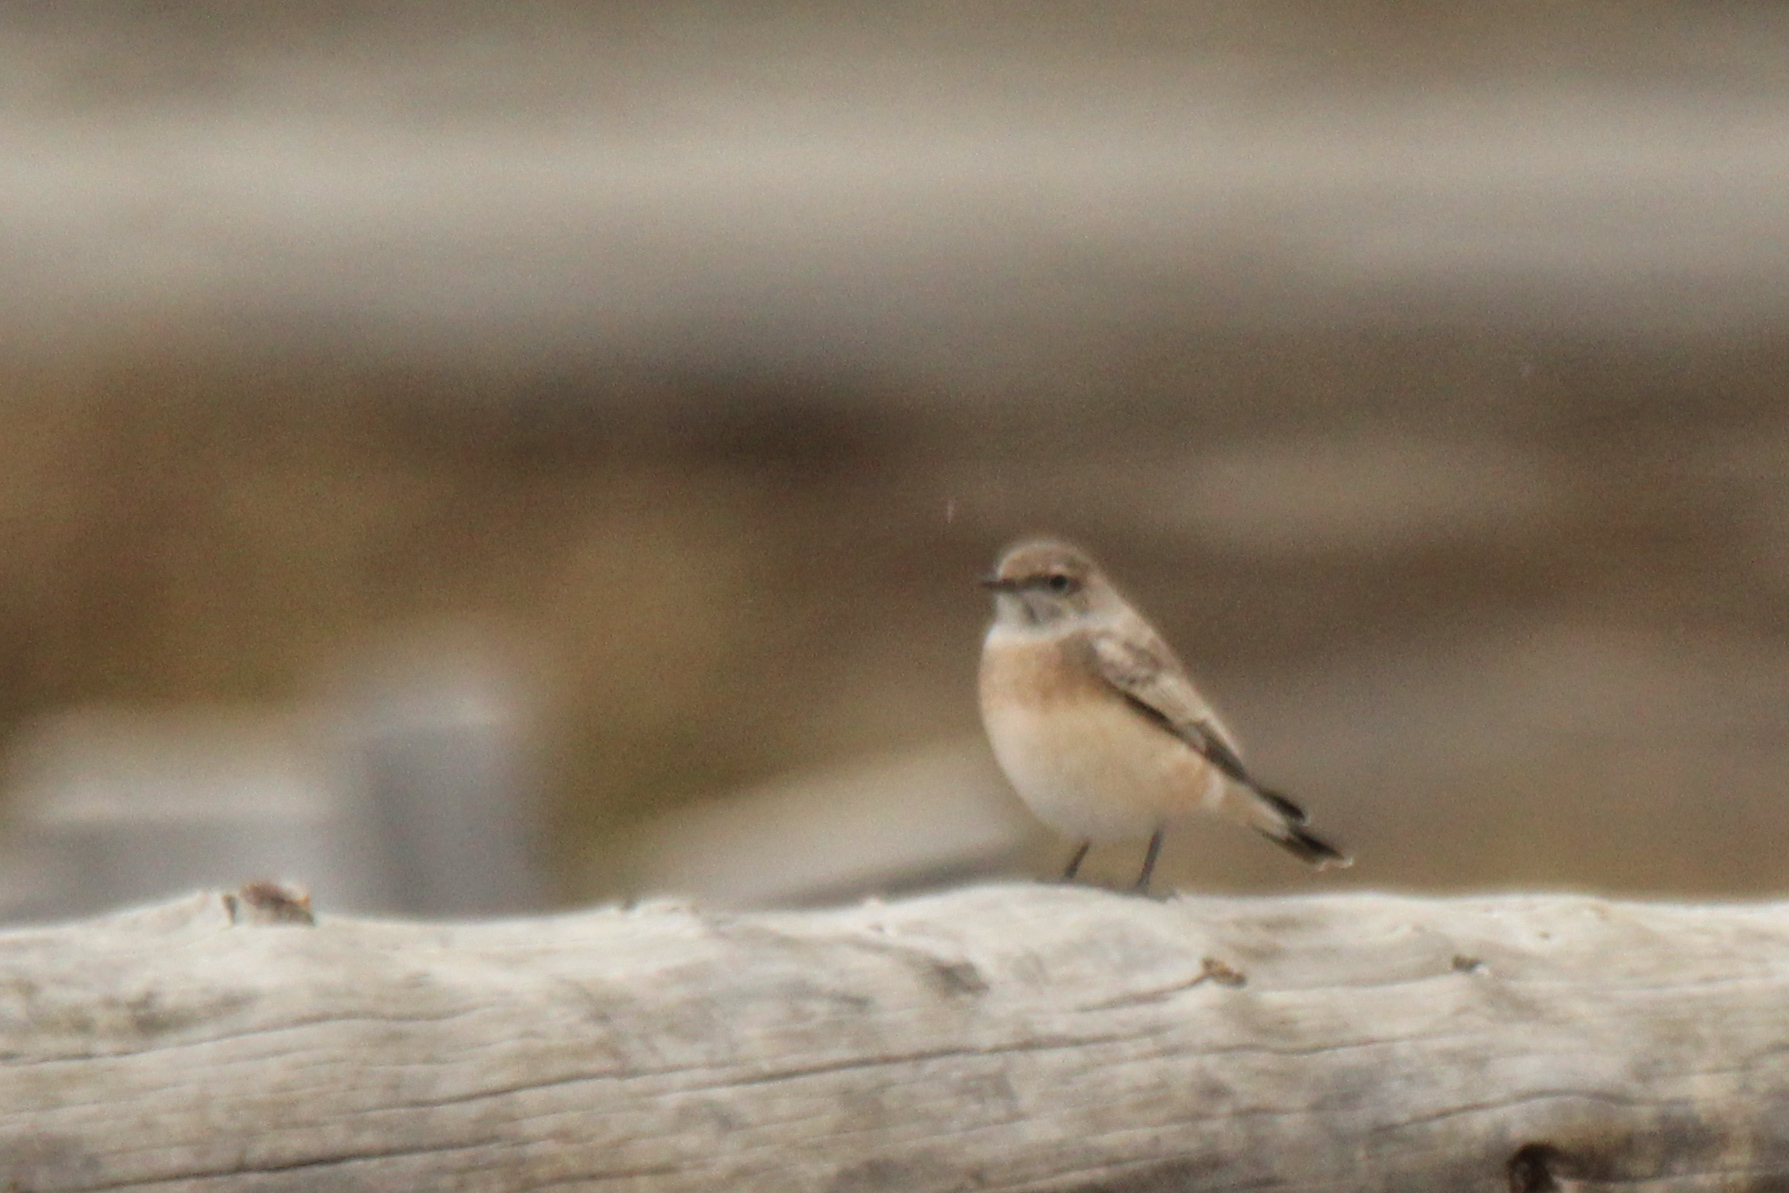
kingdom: Animalia
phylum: Chordata
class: Aves
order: Passeriformes
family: Muscicapidae
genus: Oenanthe
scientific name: Oenanthe pleschanka
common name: Pied wheatear
